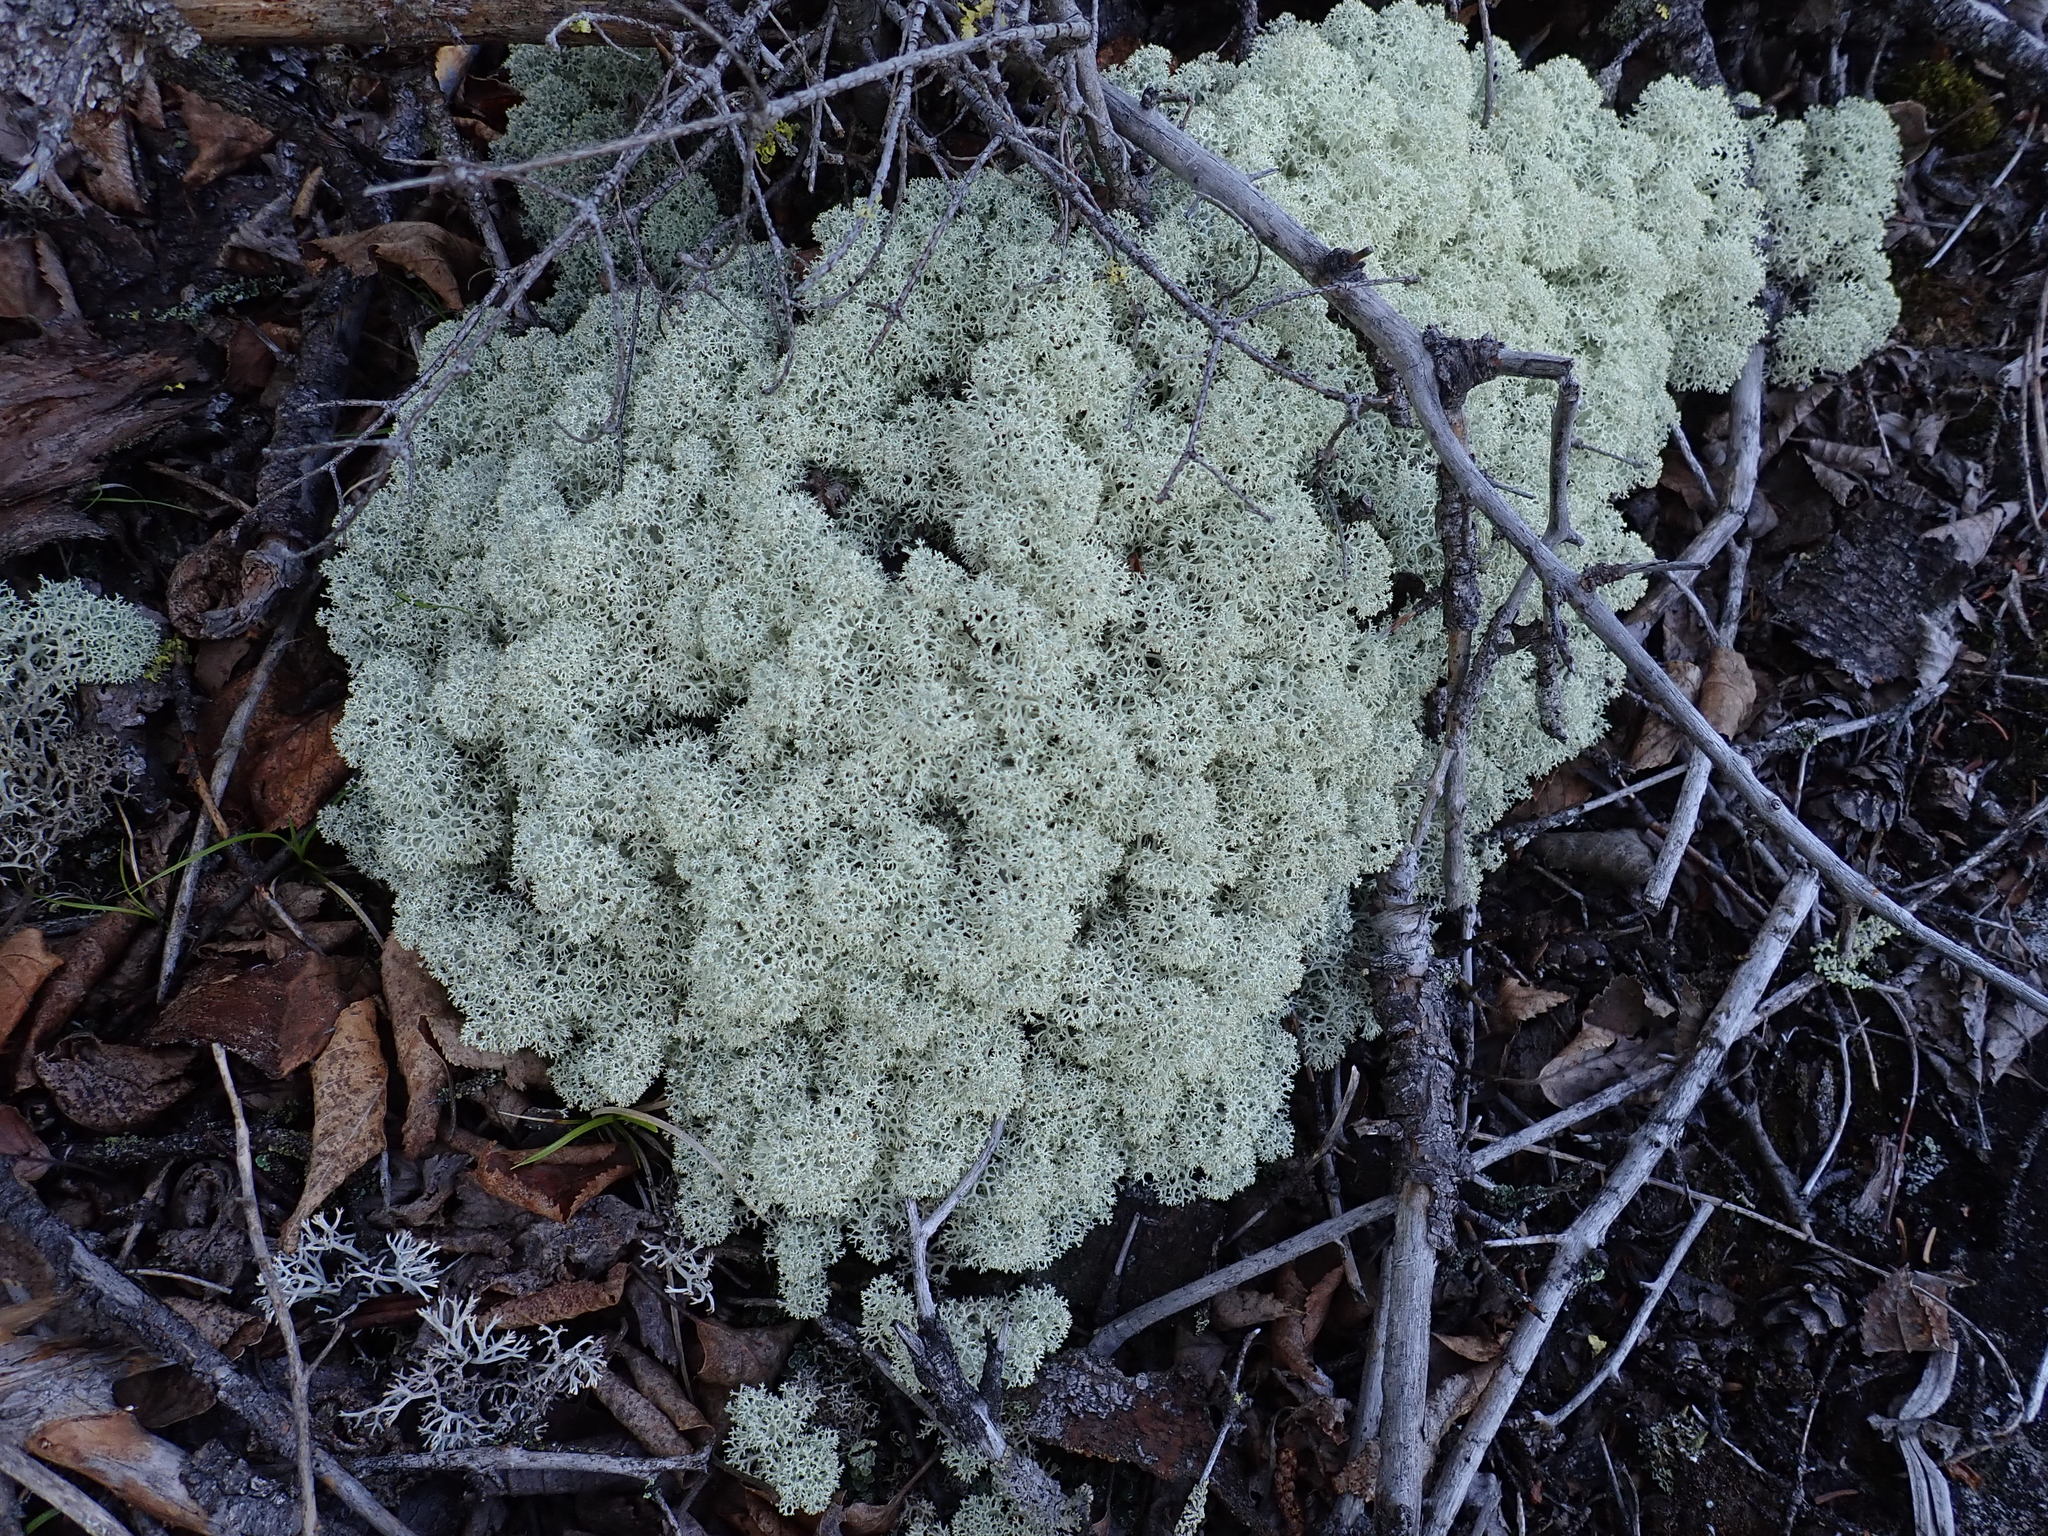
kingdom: Fungi
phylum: Ascomycota
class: Lecanoromycetes
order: Lecanorales
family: Cladoniaceae
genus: Cladonia
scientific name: Cladonia stellaris
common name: Star-tipped reindeer lichen
